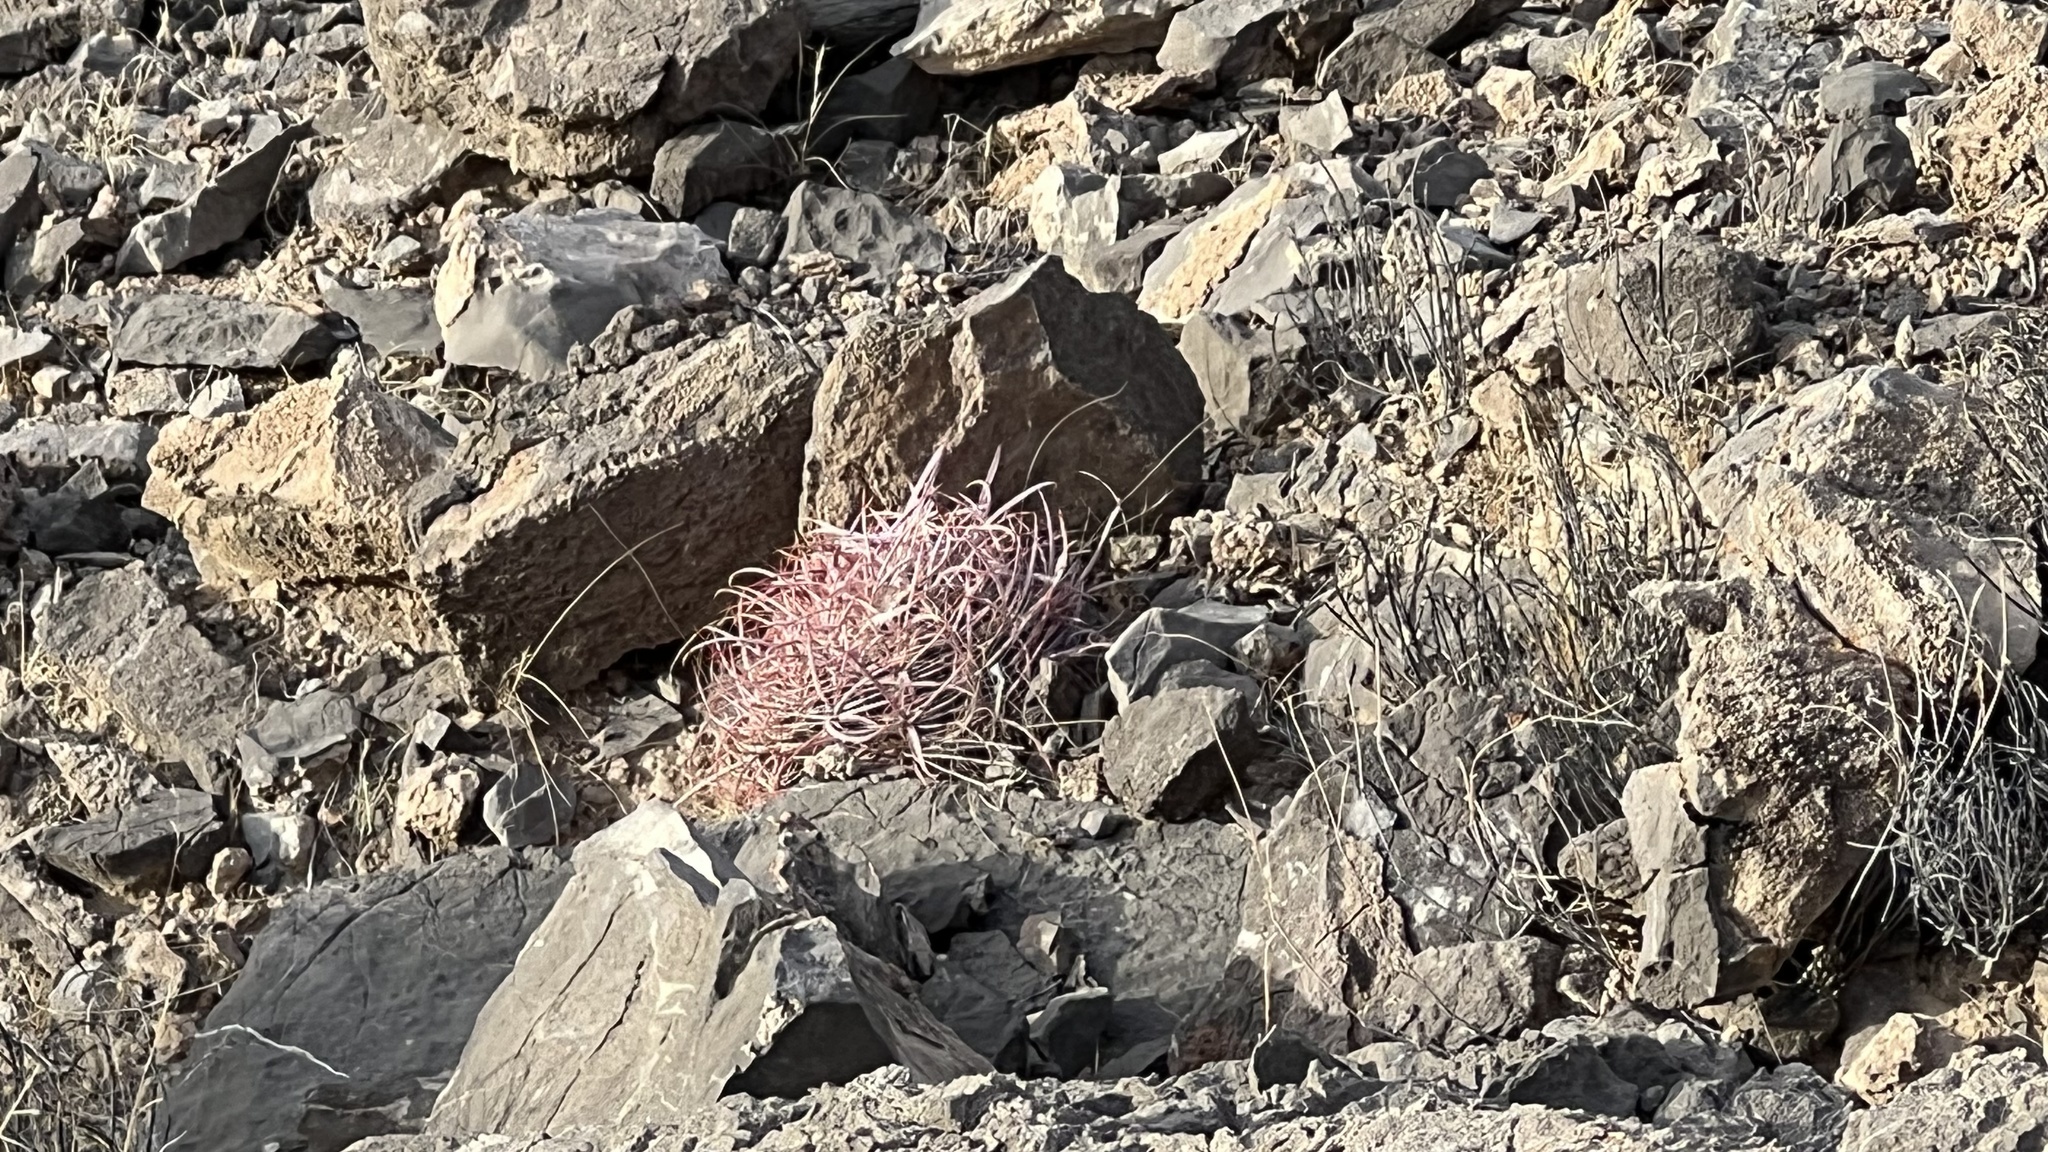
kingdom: Plantae
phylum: Tracheophyta
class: Magnoliopsida
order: Caryophyllales
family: Cactaceae
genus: Ferocactus
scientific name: Ferocactus cylindraceus
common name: California barrel cactus
